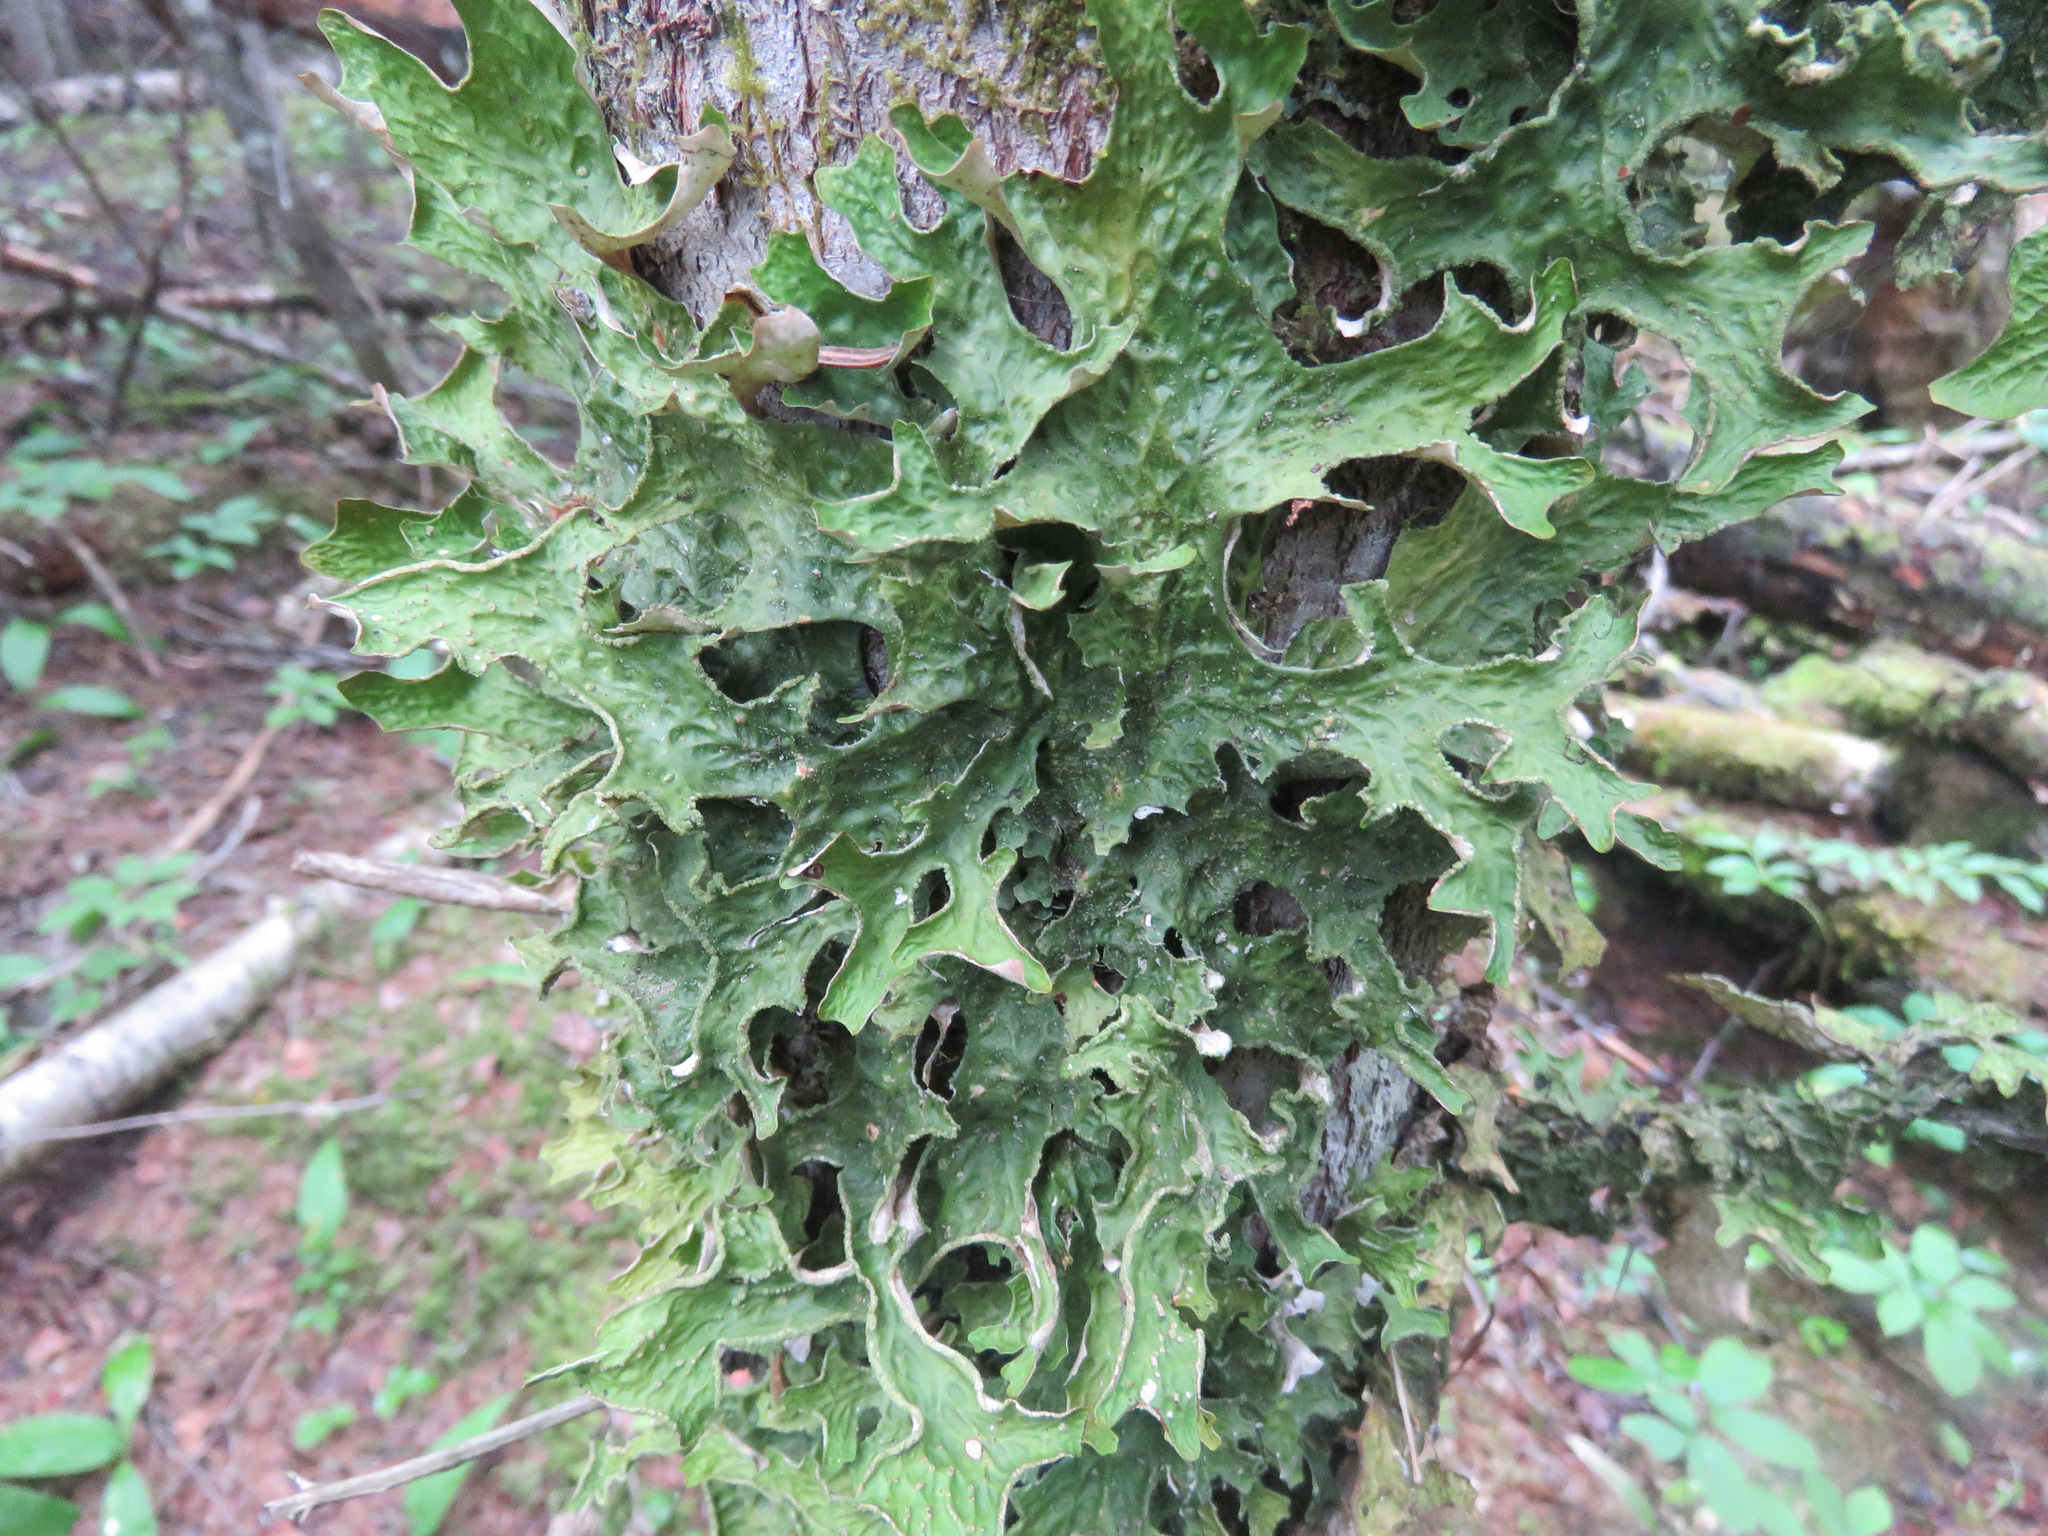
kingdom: Fungi
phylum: Ascomycota
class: Lecanoromycetes
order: Peltigerales
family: Lobariaceae
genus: Lobaria
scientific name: Lobaria pulmonaria
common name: Lungwort
